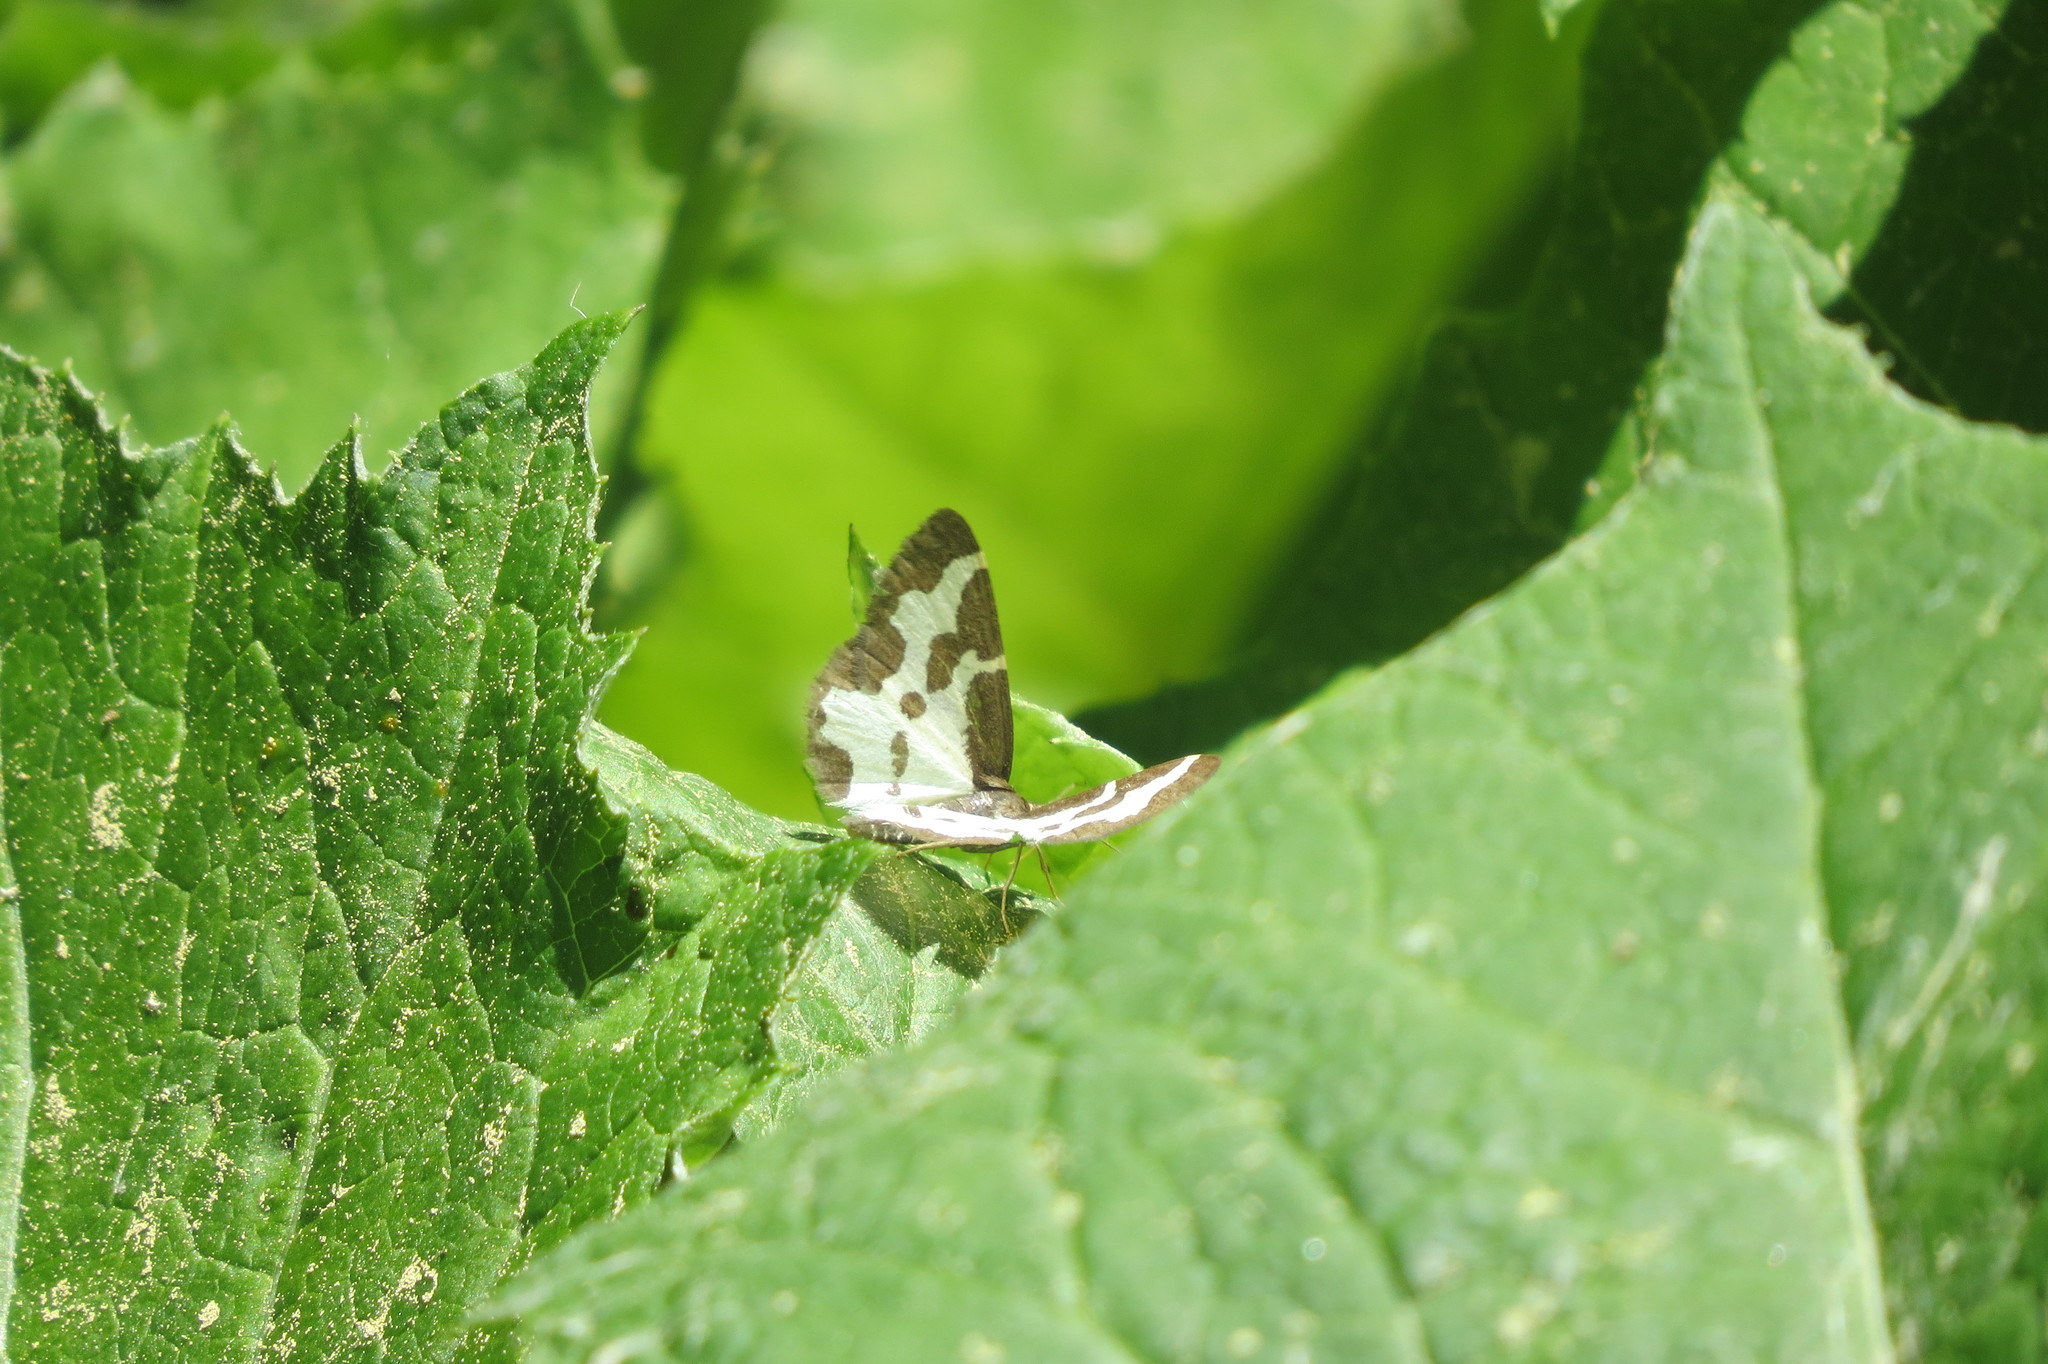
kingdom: Animalia
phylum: Arthropoda
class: Insecta
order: Lepidoptera
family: Geometridae
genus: Lomaspilis
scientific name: Lomaspilis marginata
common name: Clouded border
